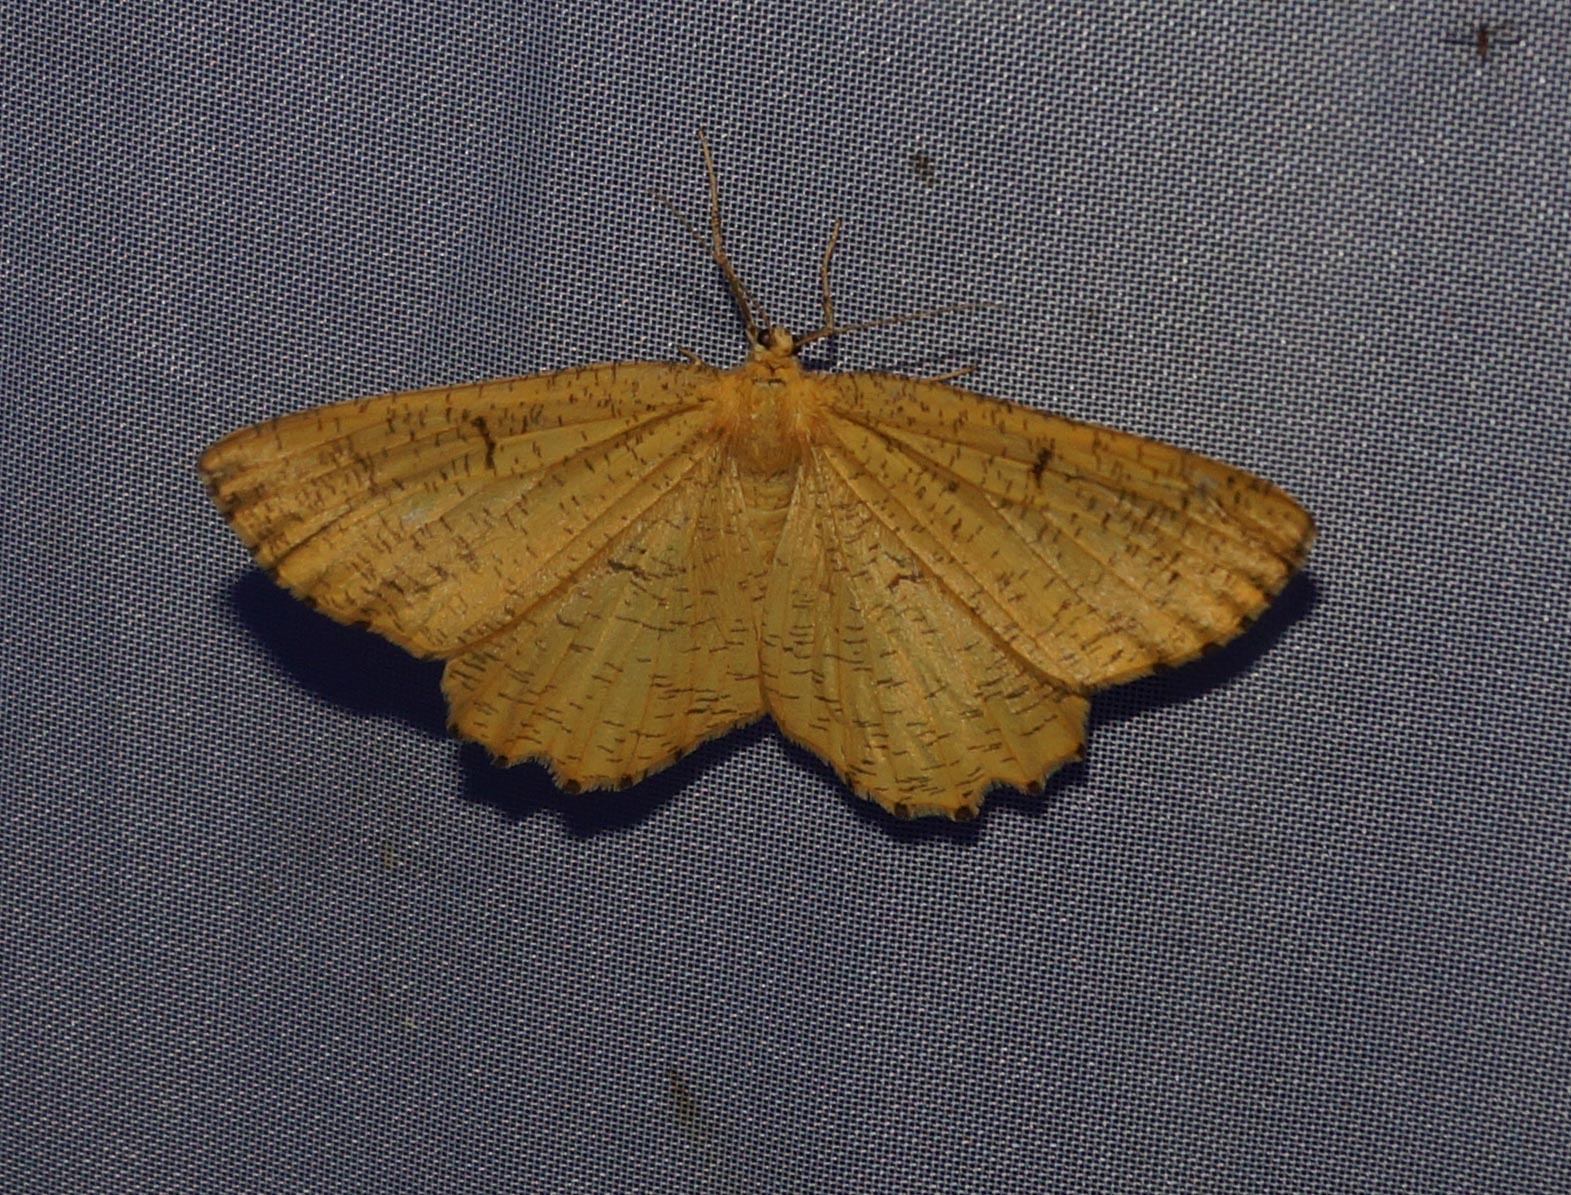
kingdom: Animalia
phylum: Arthropoda
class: Insecta
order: Lepidoptera
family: Geometridae
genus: Angerona
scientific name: Angerona prunaria
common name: Orange moth
